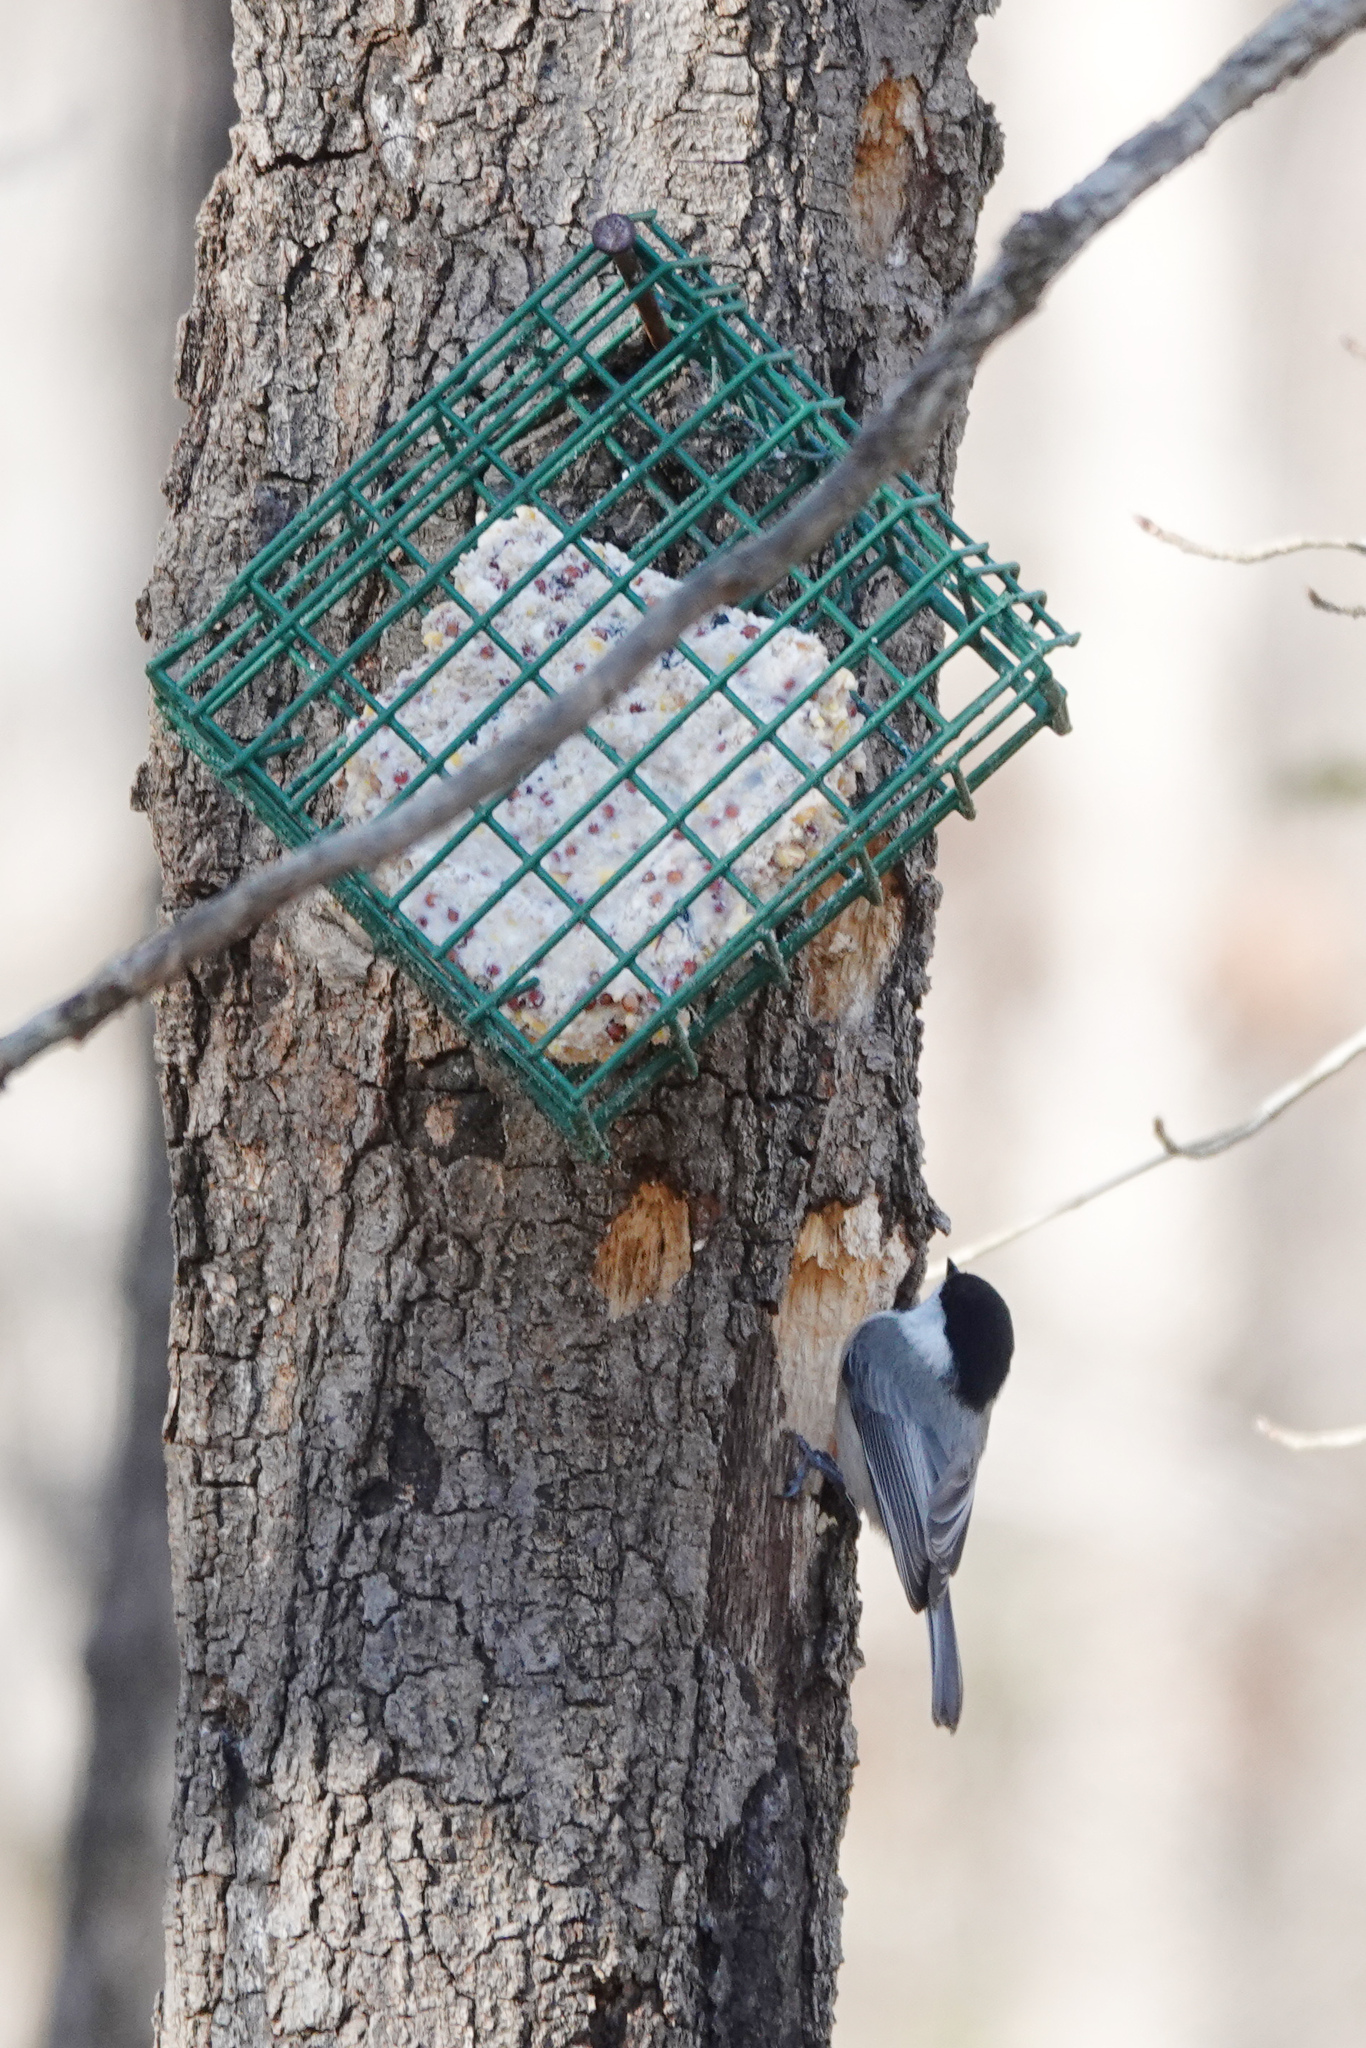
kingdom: Animalia
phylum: Chordata
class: Aves
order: Passeriformes
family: Paridae
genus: Poecile
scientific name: Poecile carolinensis
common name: Carolina chickadee
